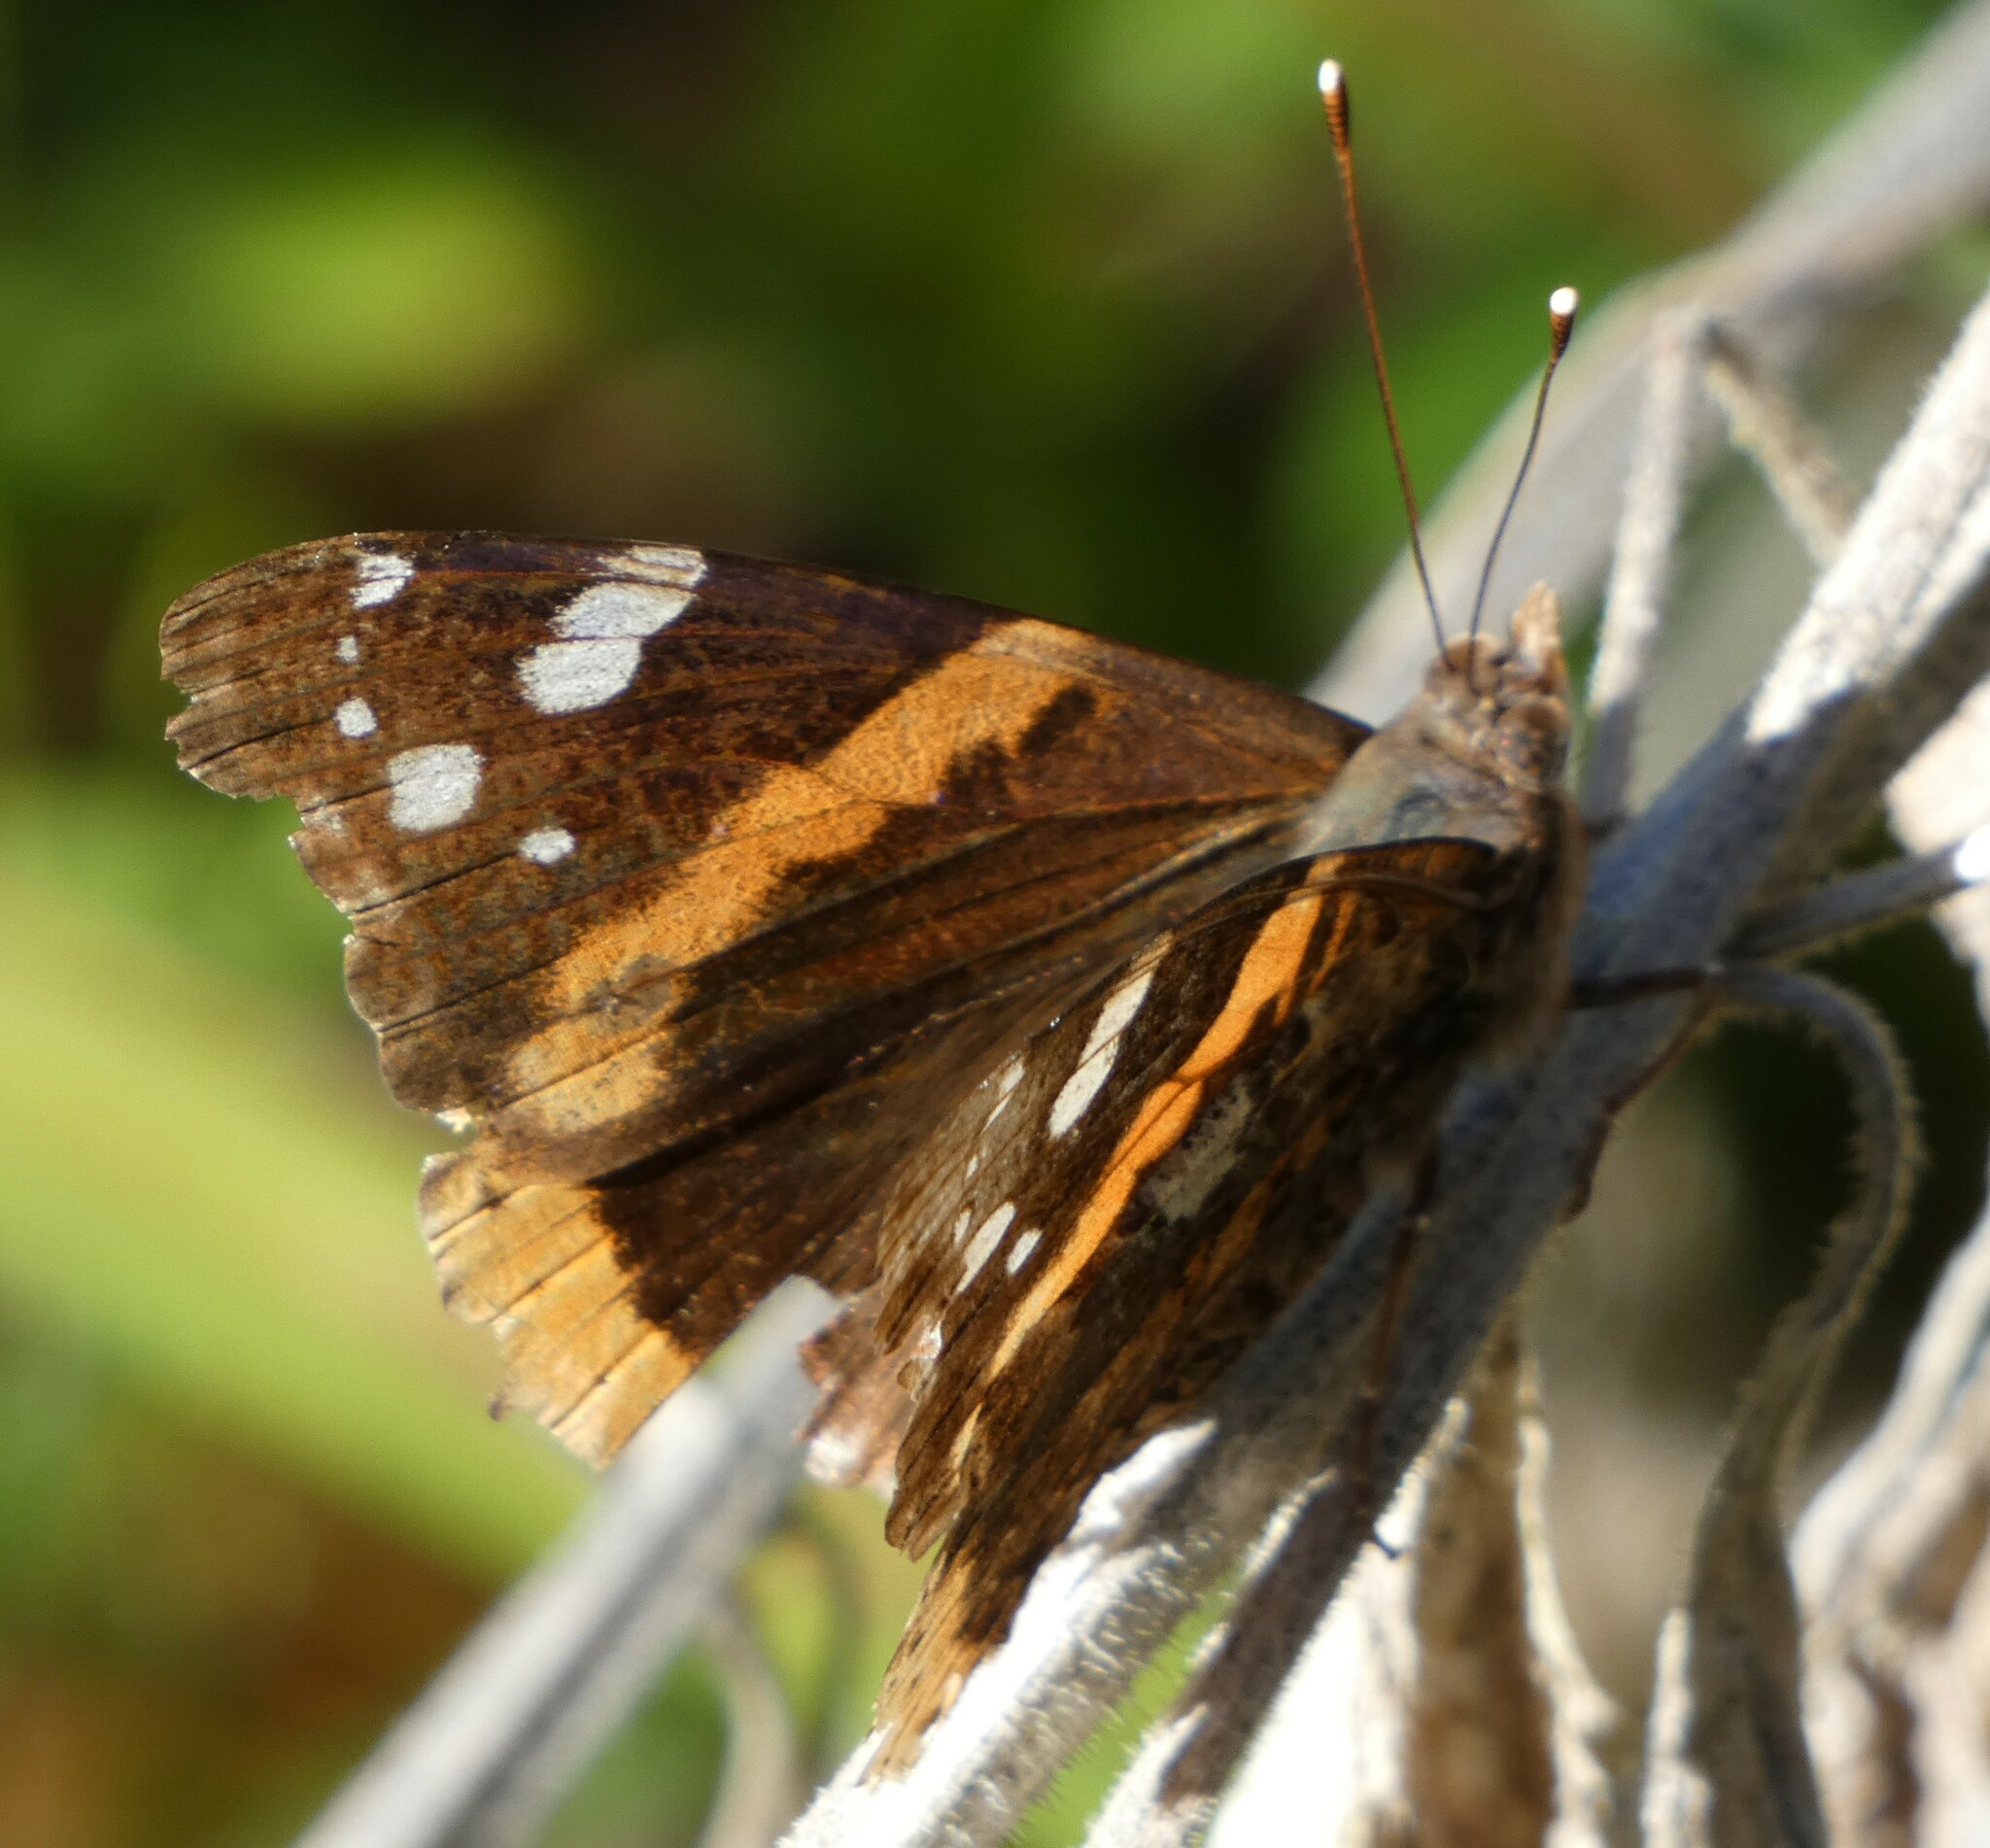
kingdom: Animalia
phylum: Arthropoda
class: Insecta
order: Lepidoptera
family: Nymphalidae
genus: Vanessa
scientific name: Vanessa atalanta
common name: Red admiral
